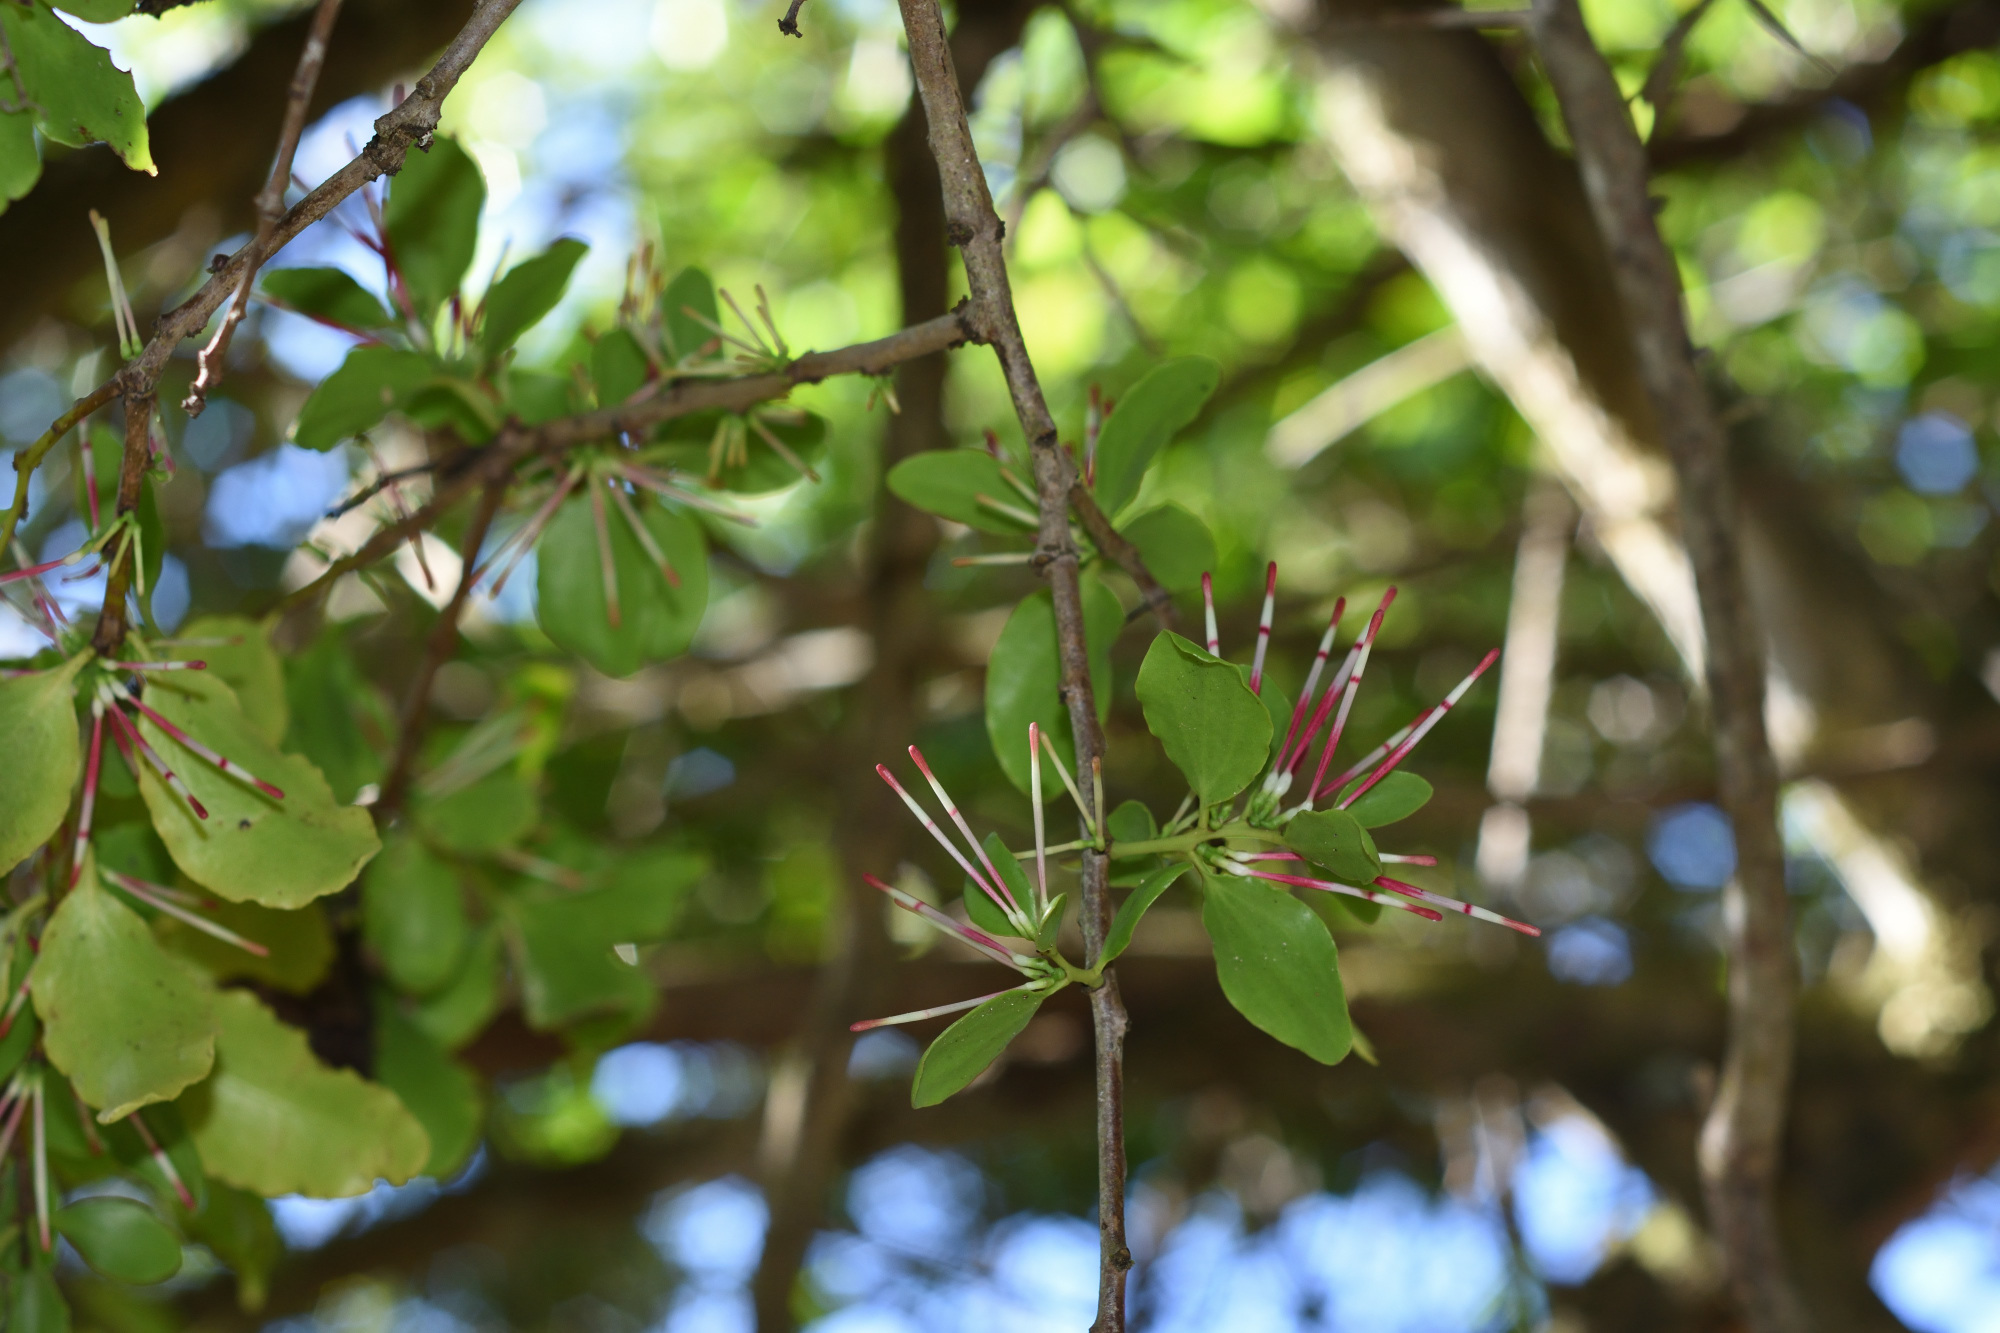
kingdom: Plantae
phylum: Tracheophyta
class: Magnoliopsida
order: Santalales
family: Loranthaceae
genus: Oncocalyx
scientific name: Oncocalyx quinquenervius
